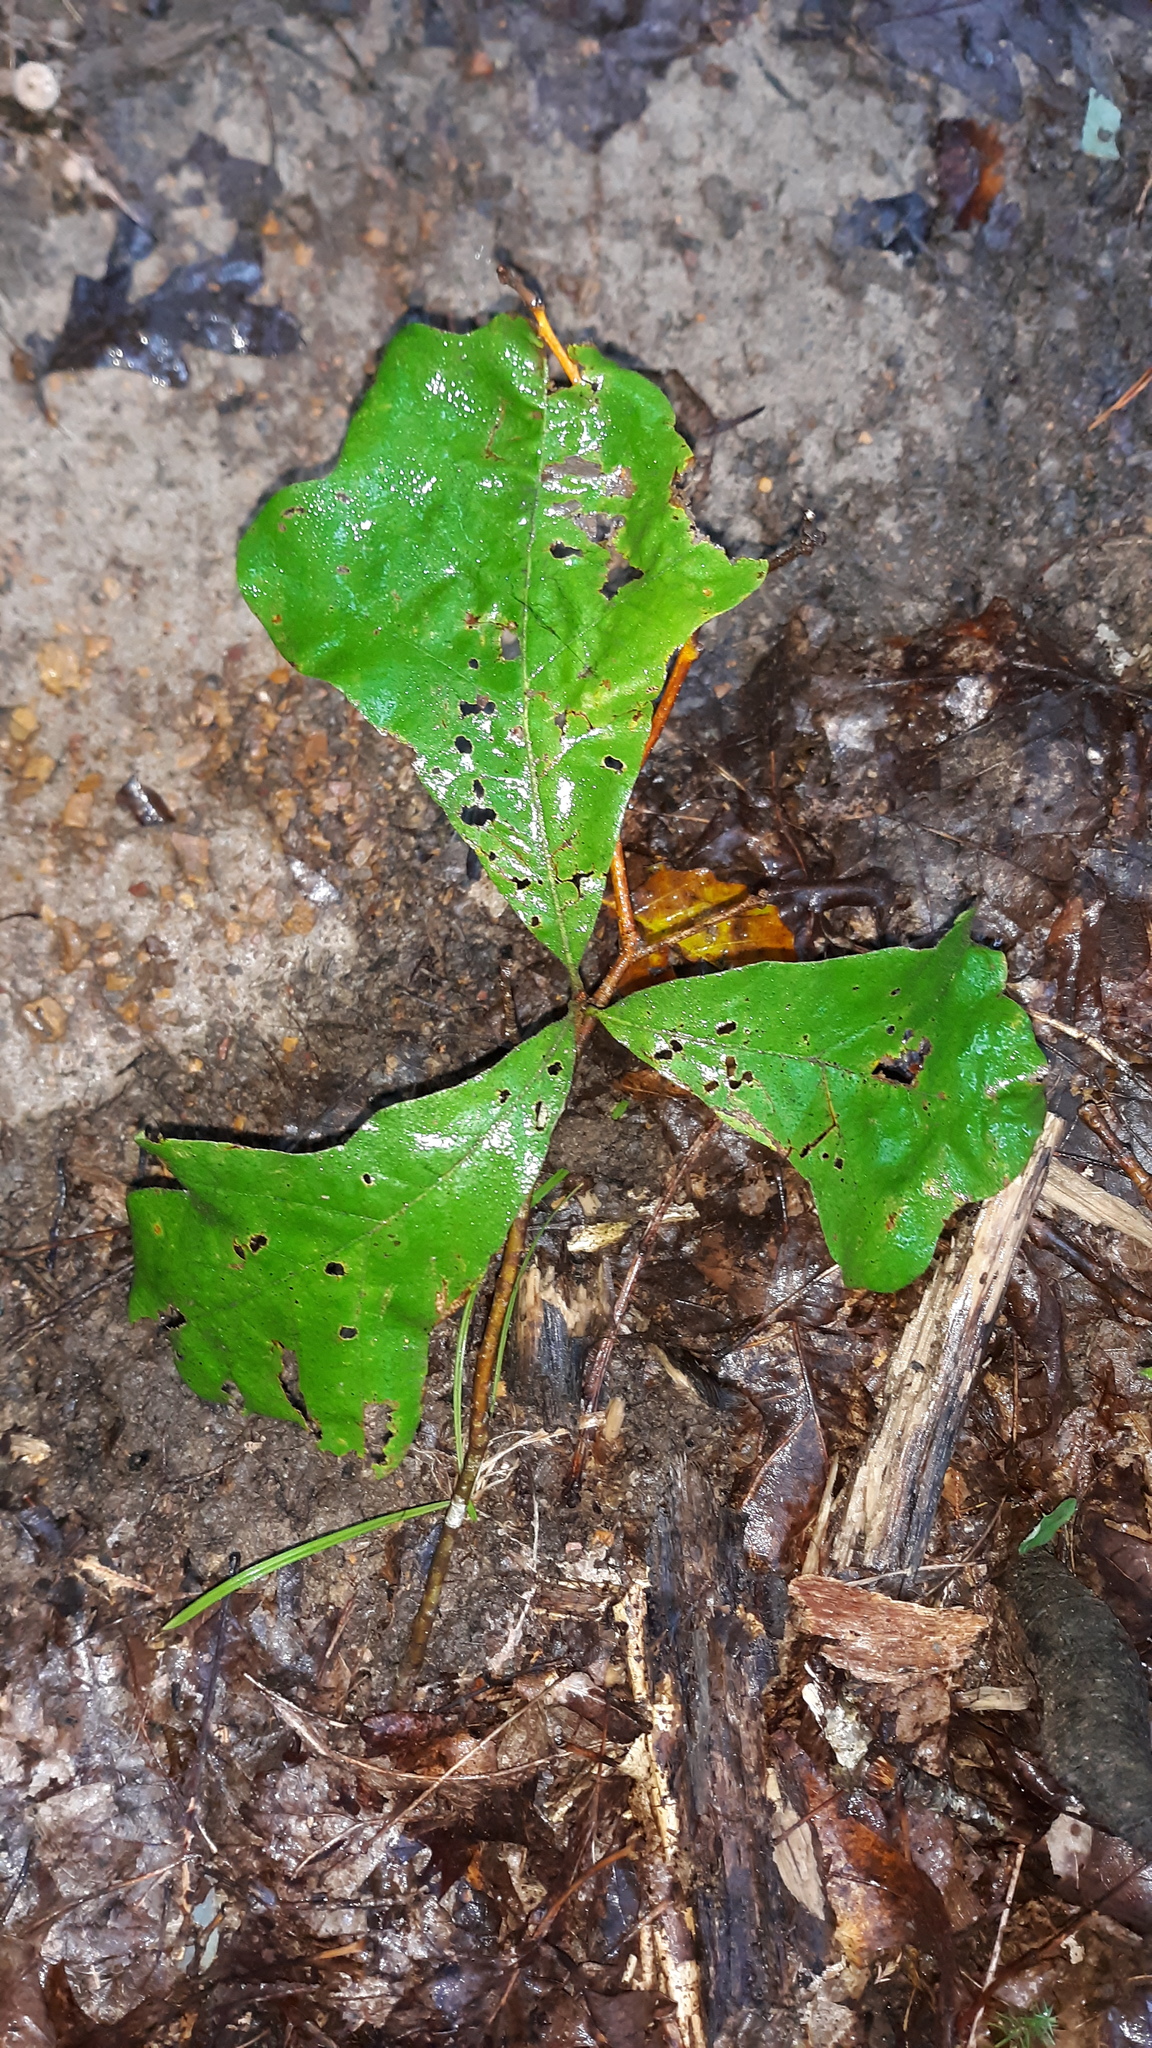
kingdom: Plantae
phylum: Tracheophyta
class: Magnoliopsida
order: Fagales
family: Fagaceae
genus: Quercus
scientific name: Quercus marilandica
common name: Blackjack oak
